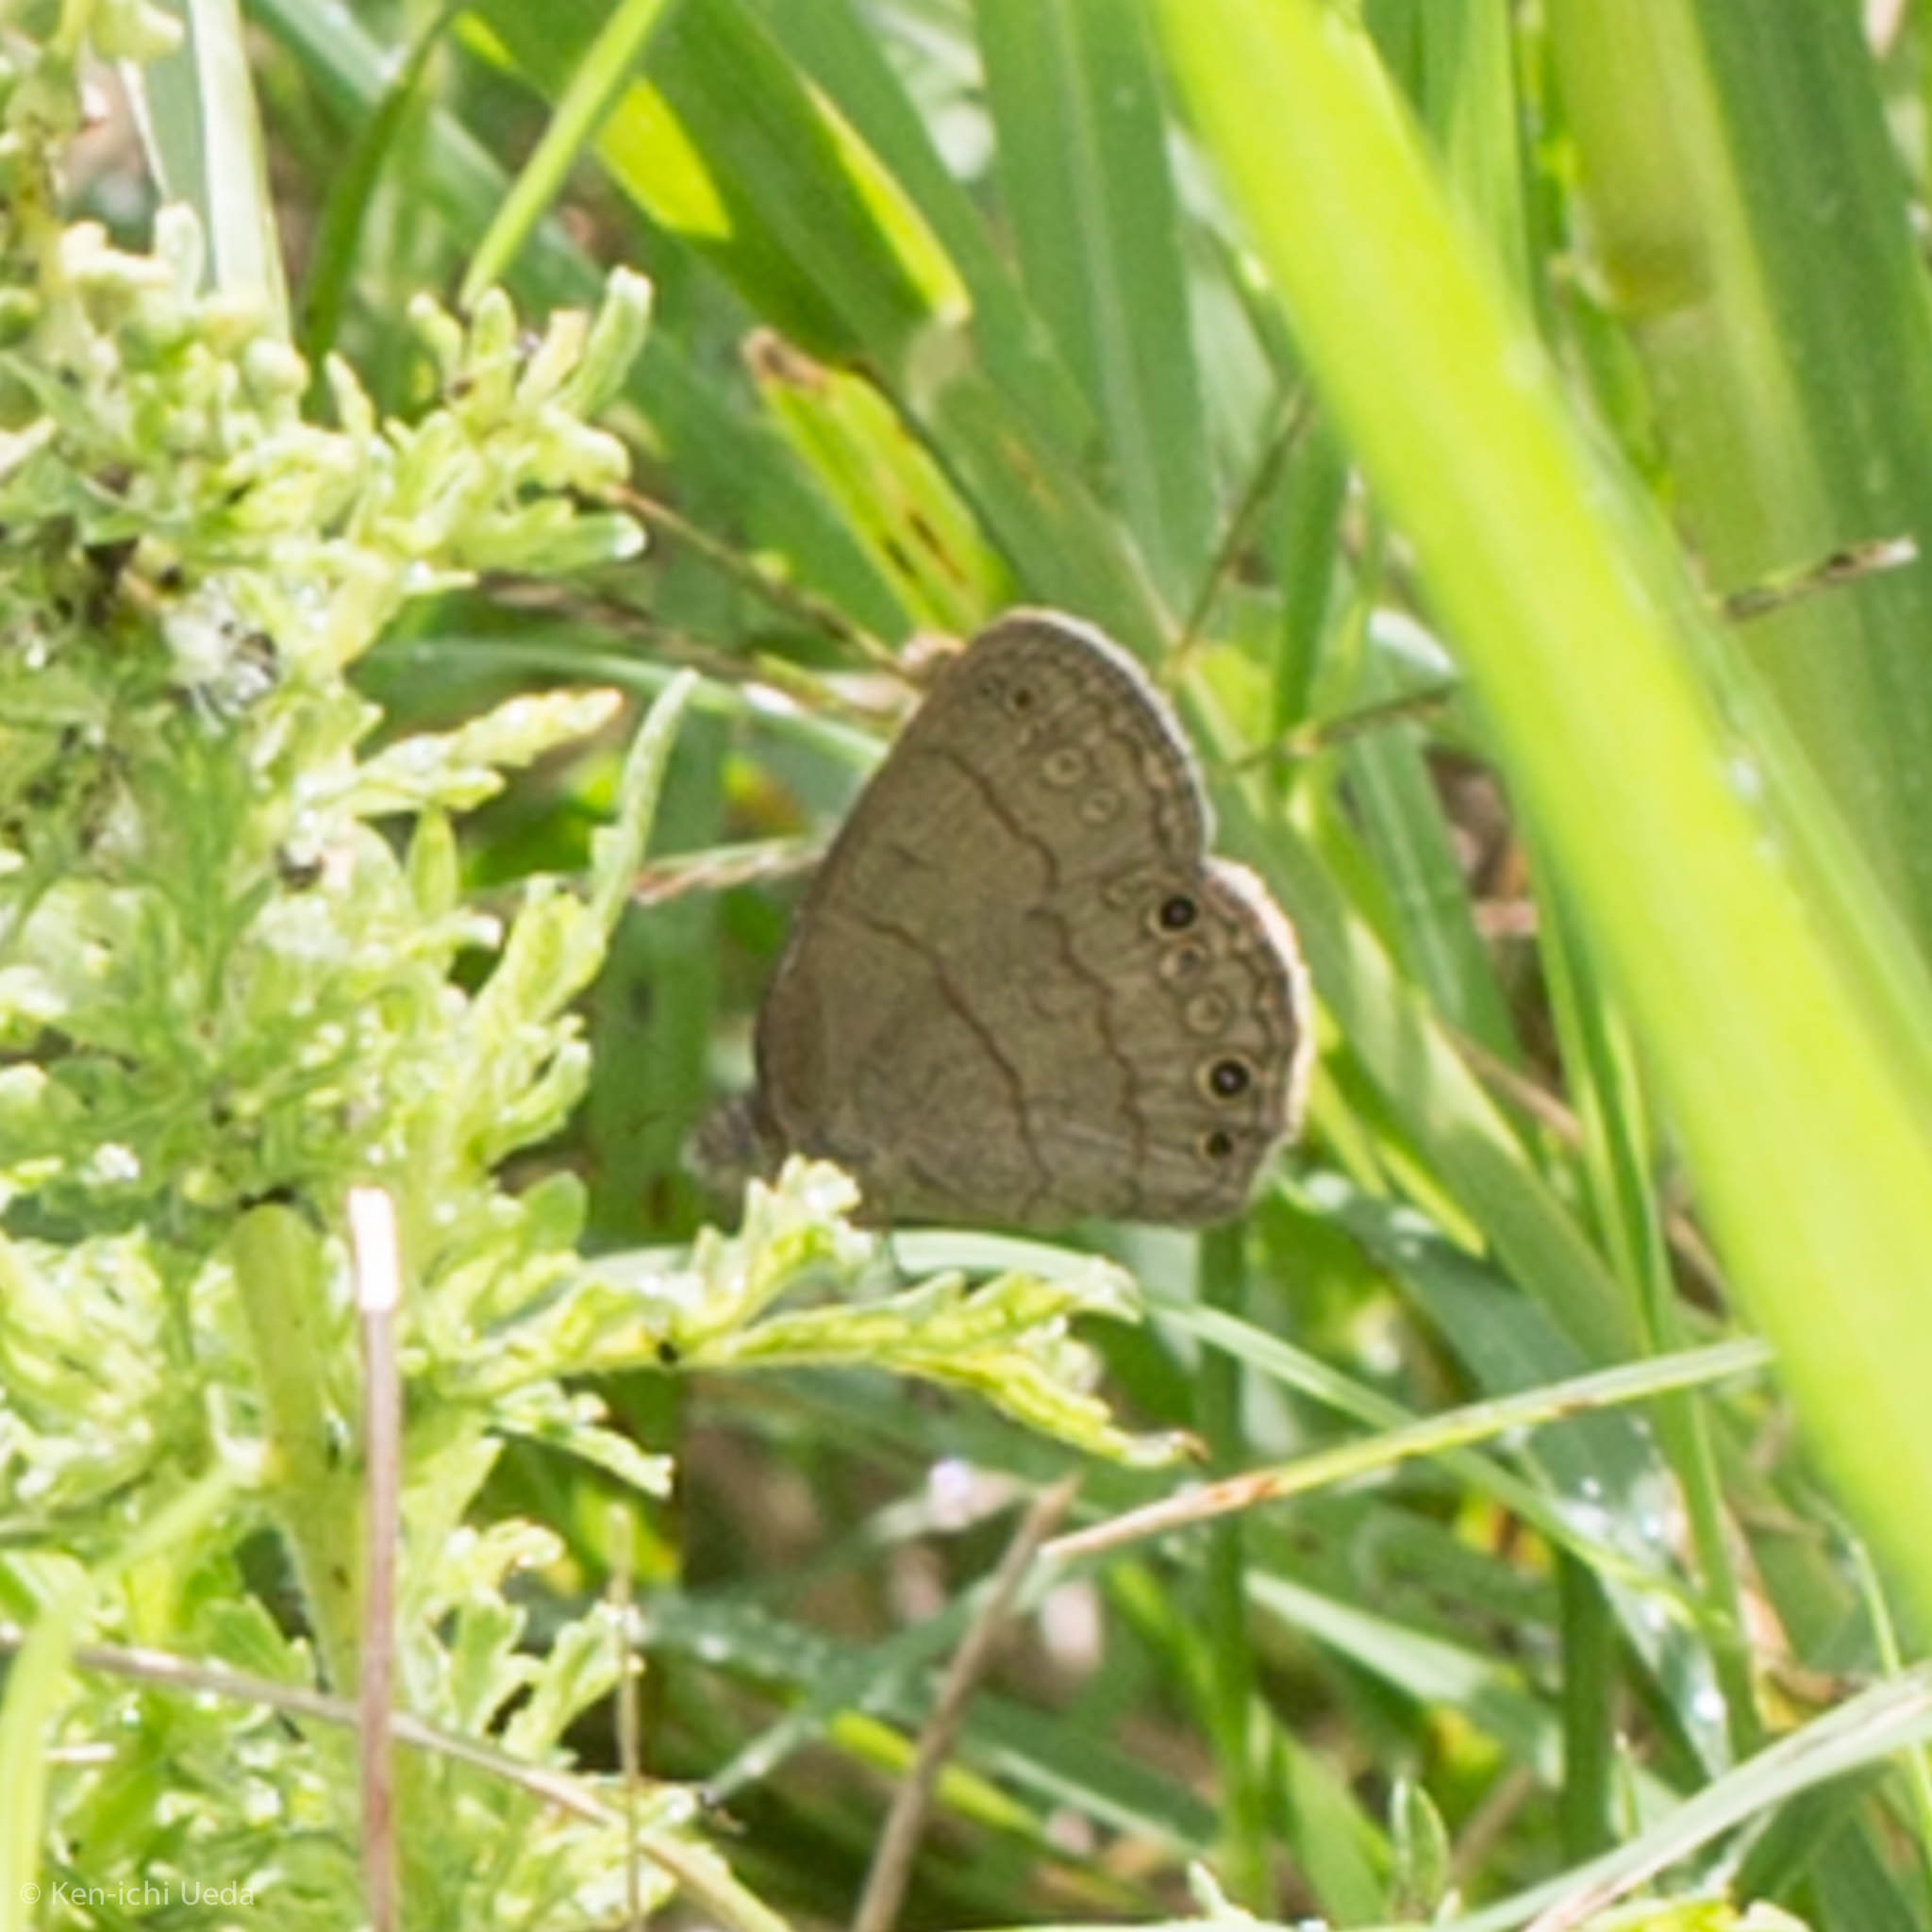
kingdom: Animalia
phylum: Arthropoda
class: Insecta
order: Lepidoptera
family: Nymphalidae
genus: Hermeuptychia
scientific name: Hermeuptychia hermybius
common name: South texas satyr
